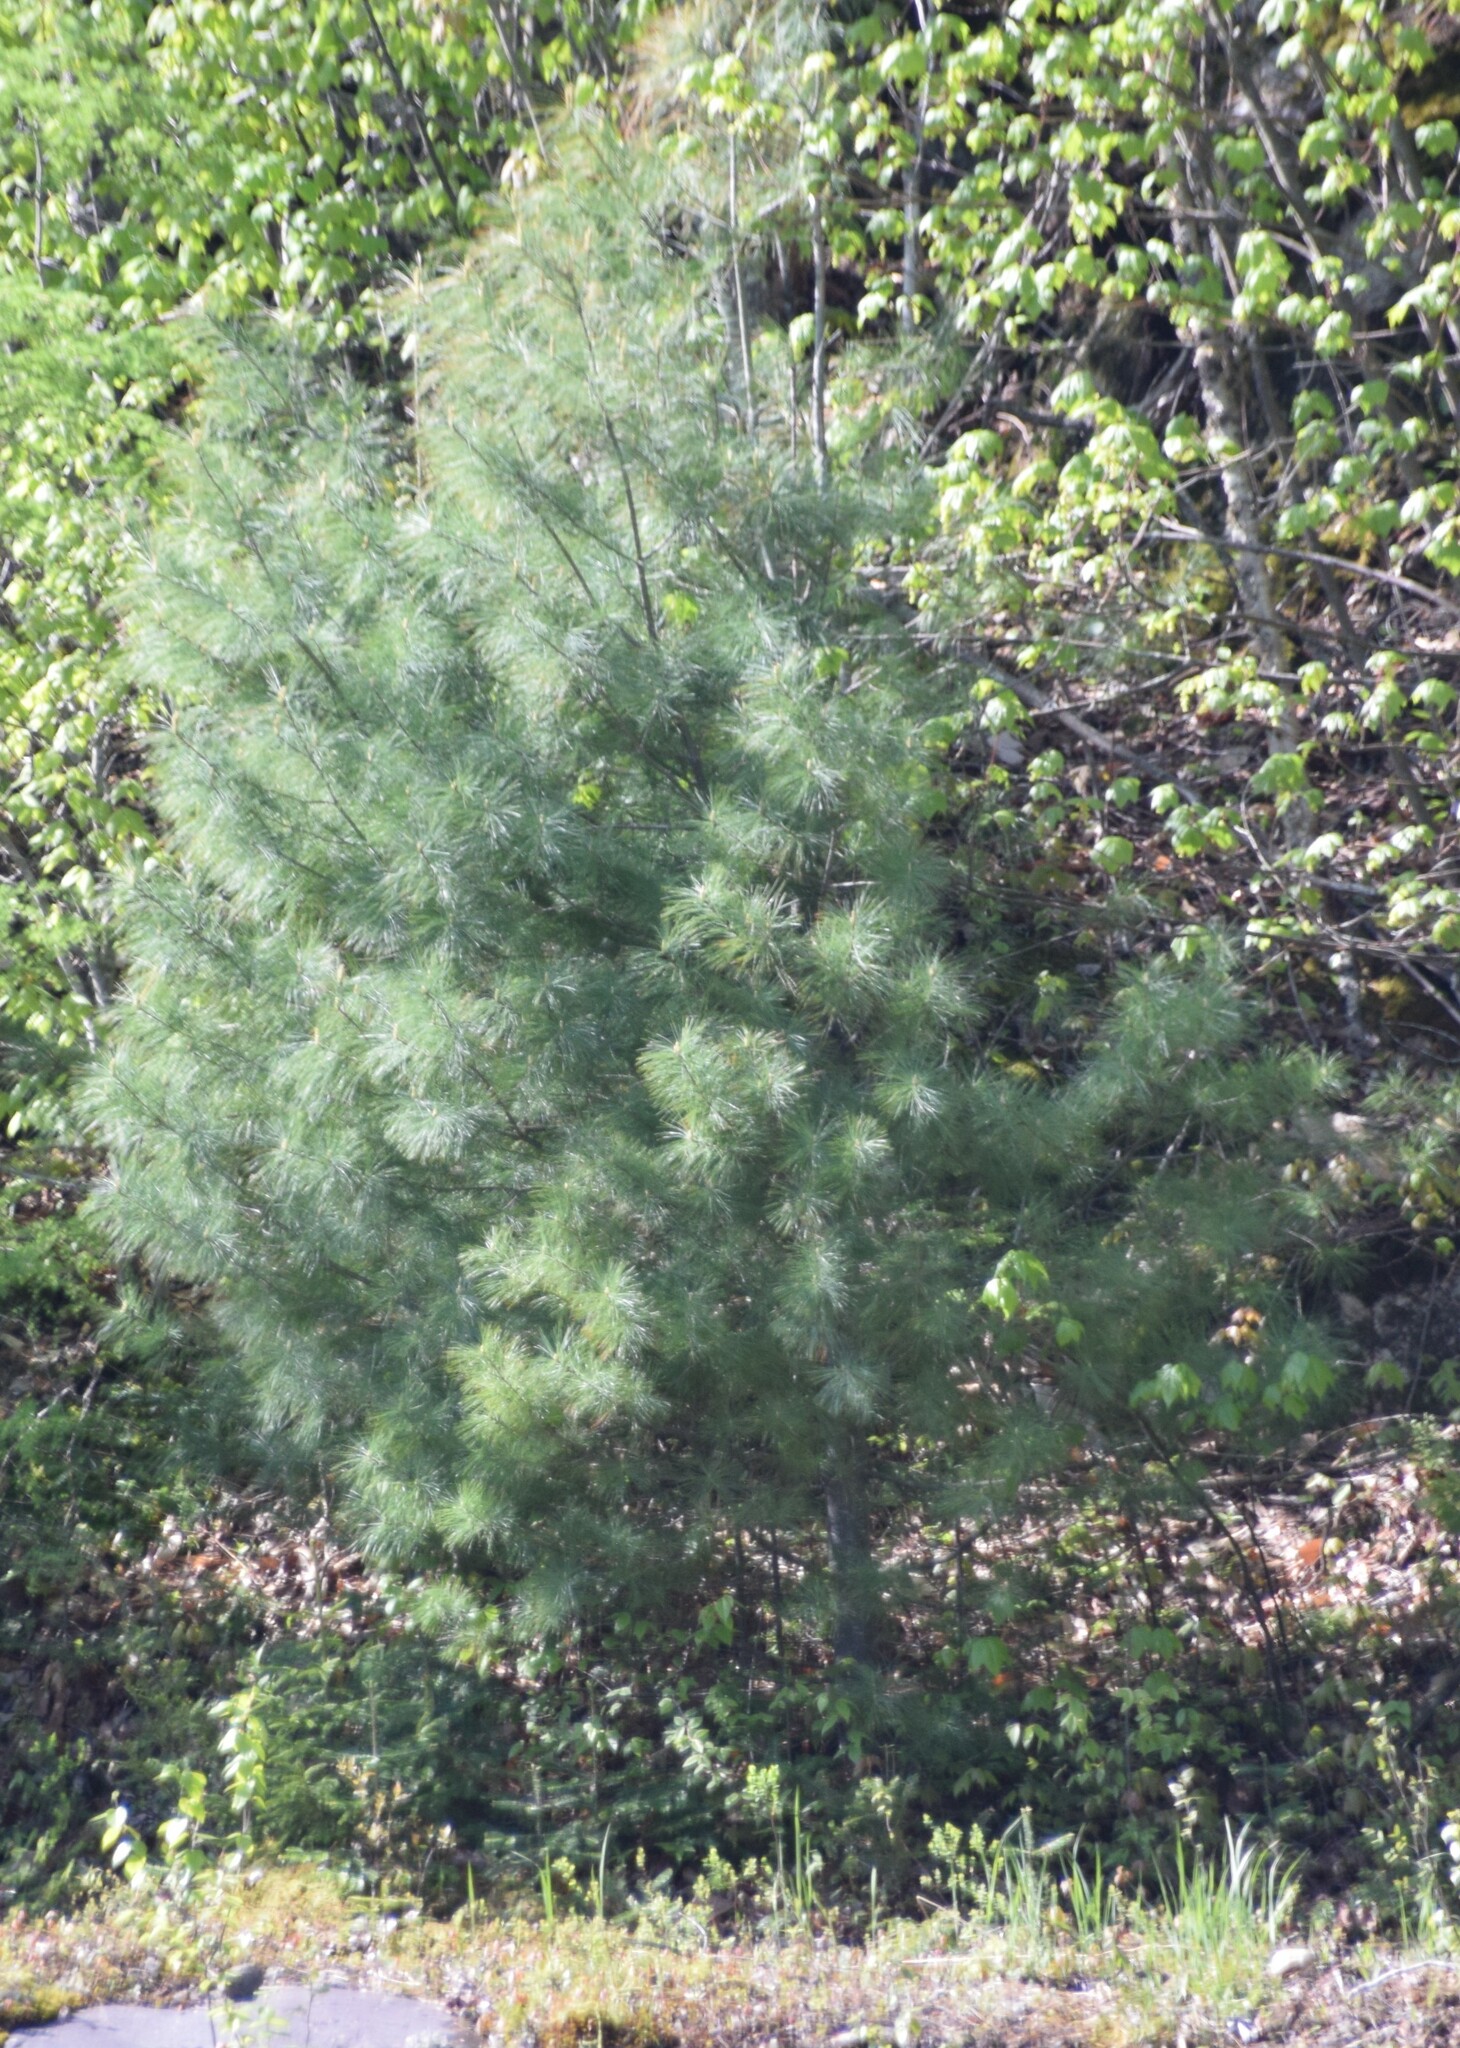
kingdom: Plantae
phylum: Tracheophyta
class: Pinopsida
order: Pinales
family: Pinaceae
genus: Pinus
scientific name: Pinus strobus
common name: Weymouth pine
